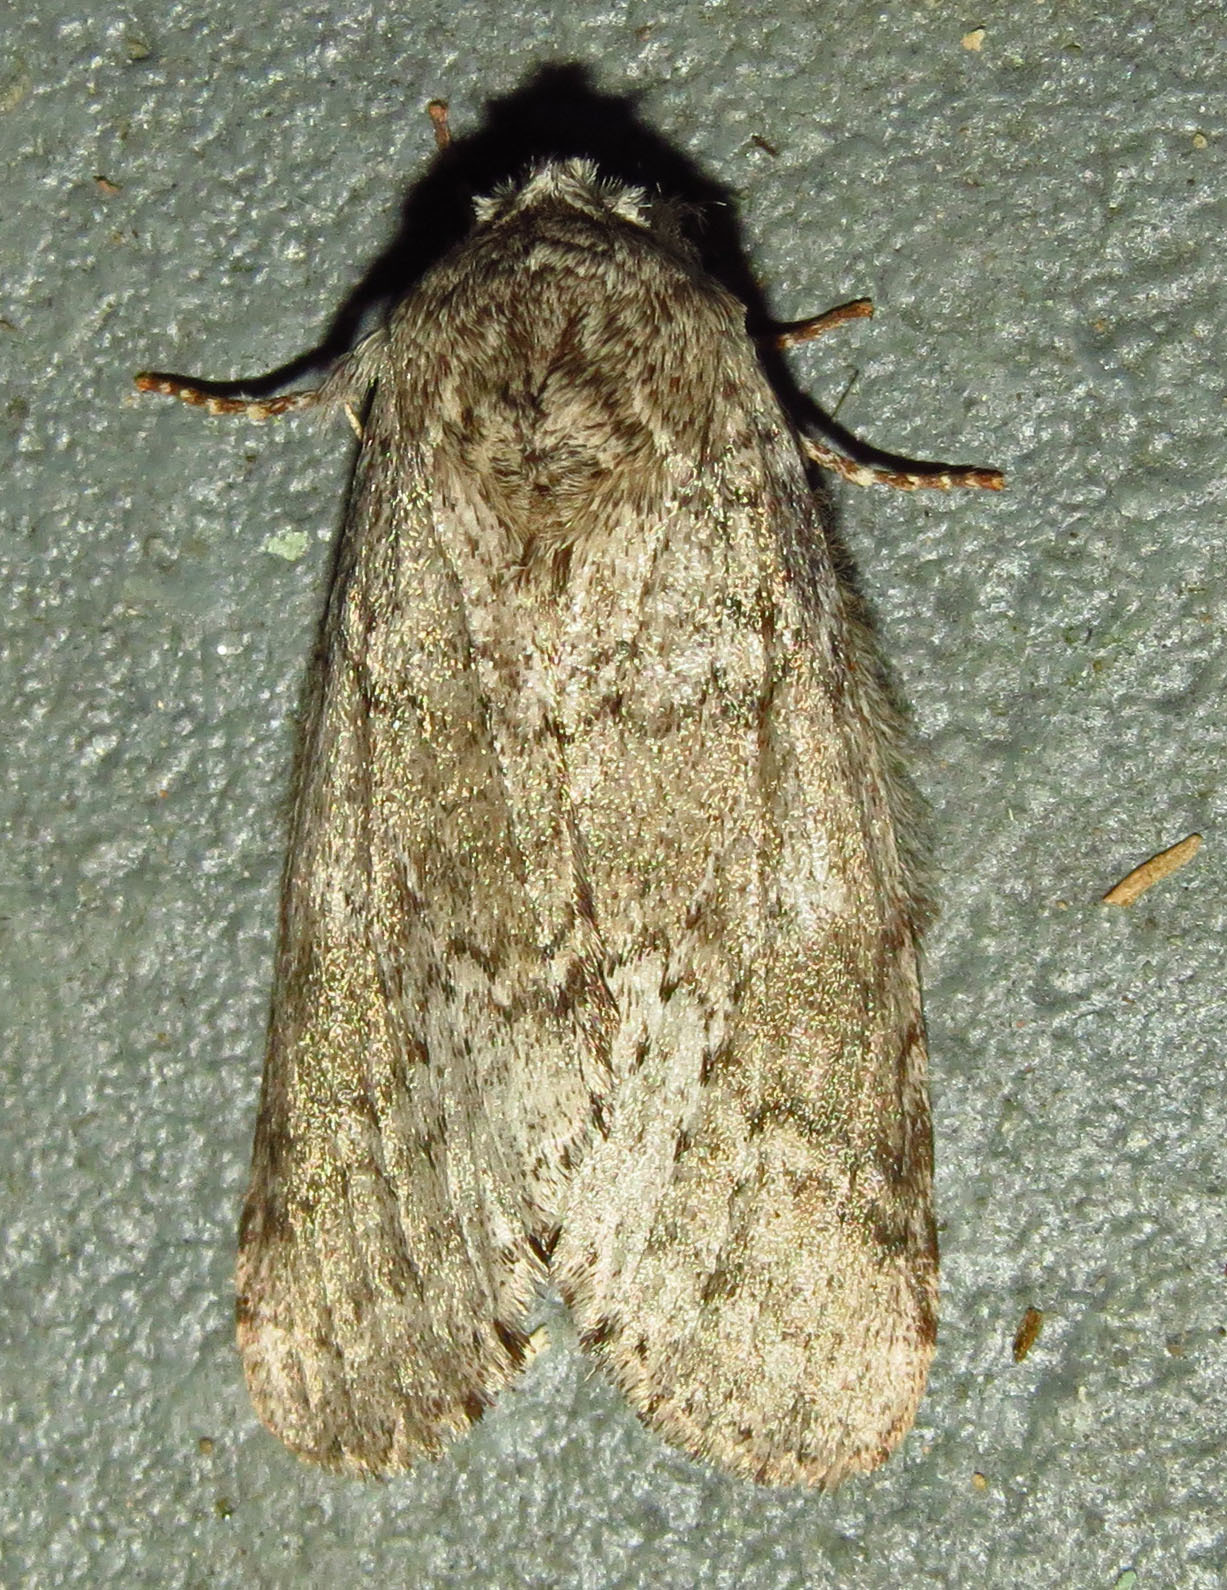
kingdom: Animalia
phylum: Arthropoda
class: Insecta
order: Lepidoptera
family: Notodontidae
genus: Lochmaeus
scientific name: Lochmaeus manteo
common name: Variable oakleaf caterpillar moth
